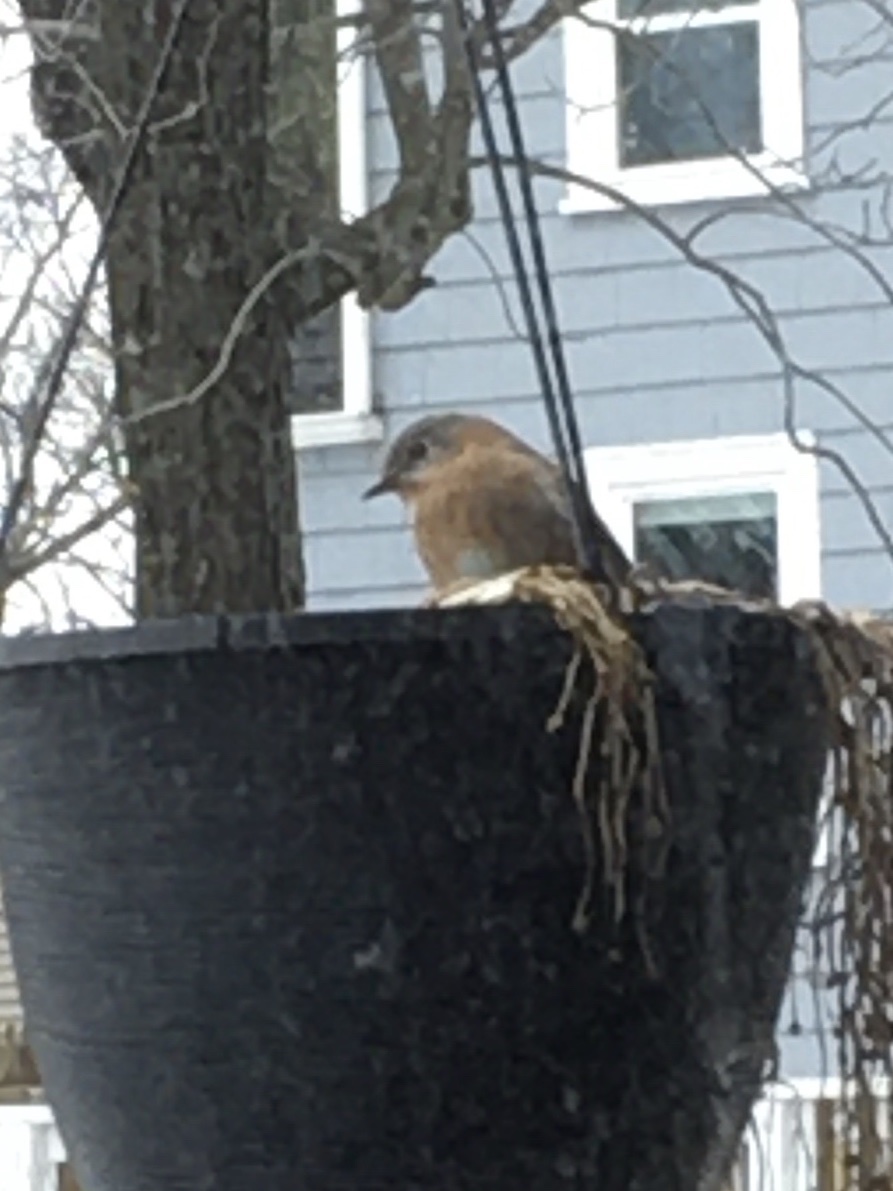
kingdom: Animalia
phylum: Chordata
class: Aves
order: Passeriformes
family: Turdidae
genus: Sialia
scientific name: Sialia sialis
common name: Eastern bluebird
